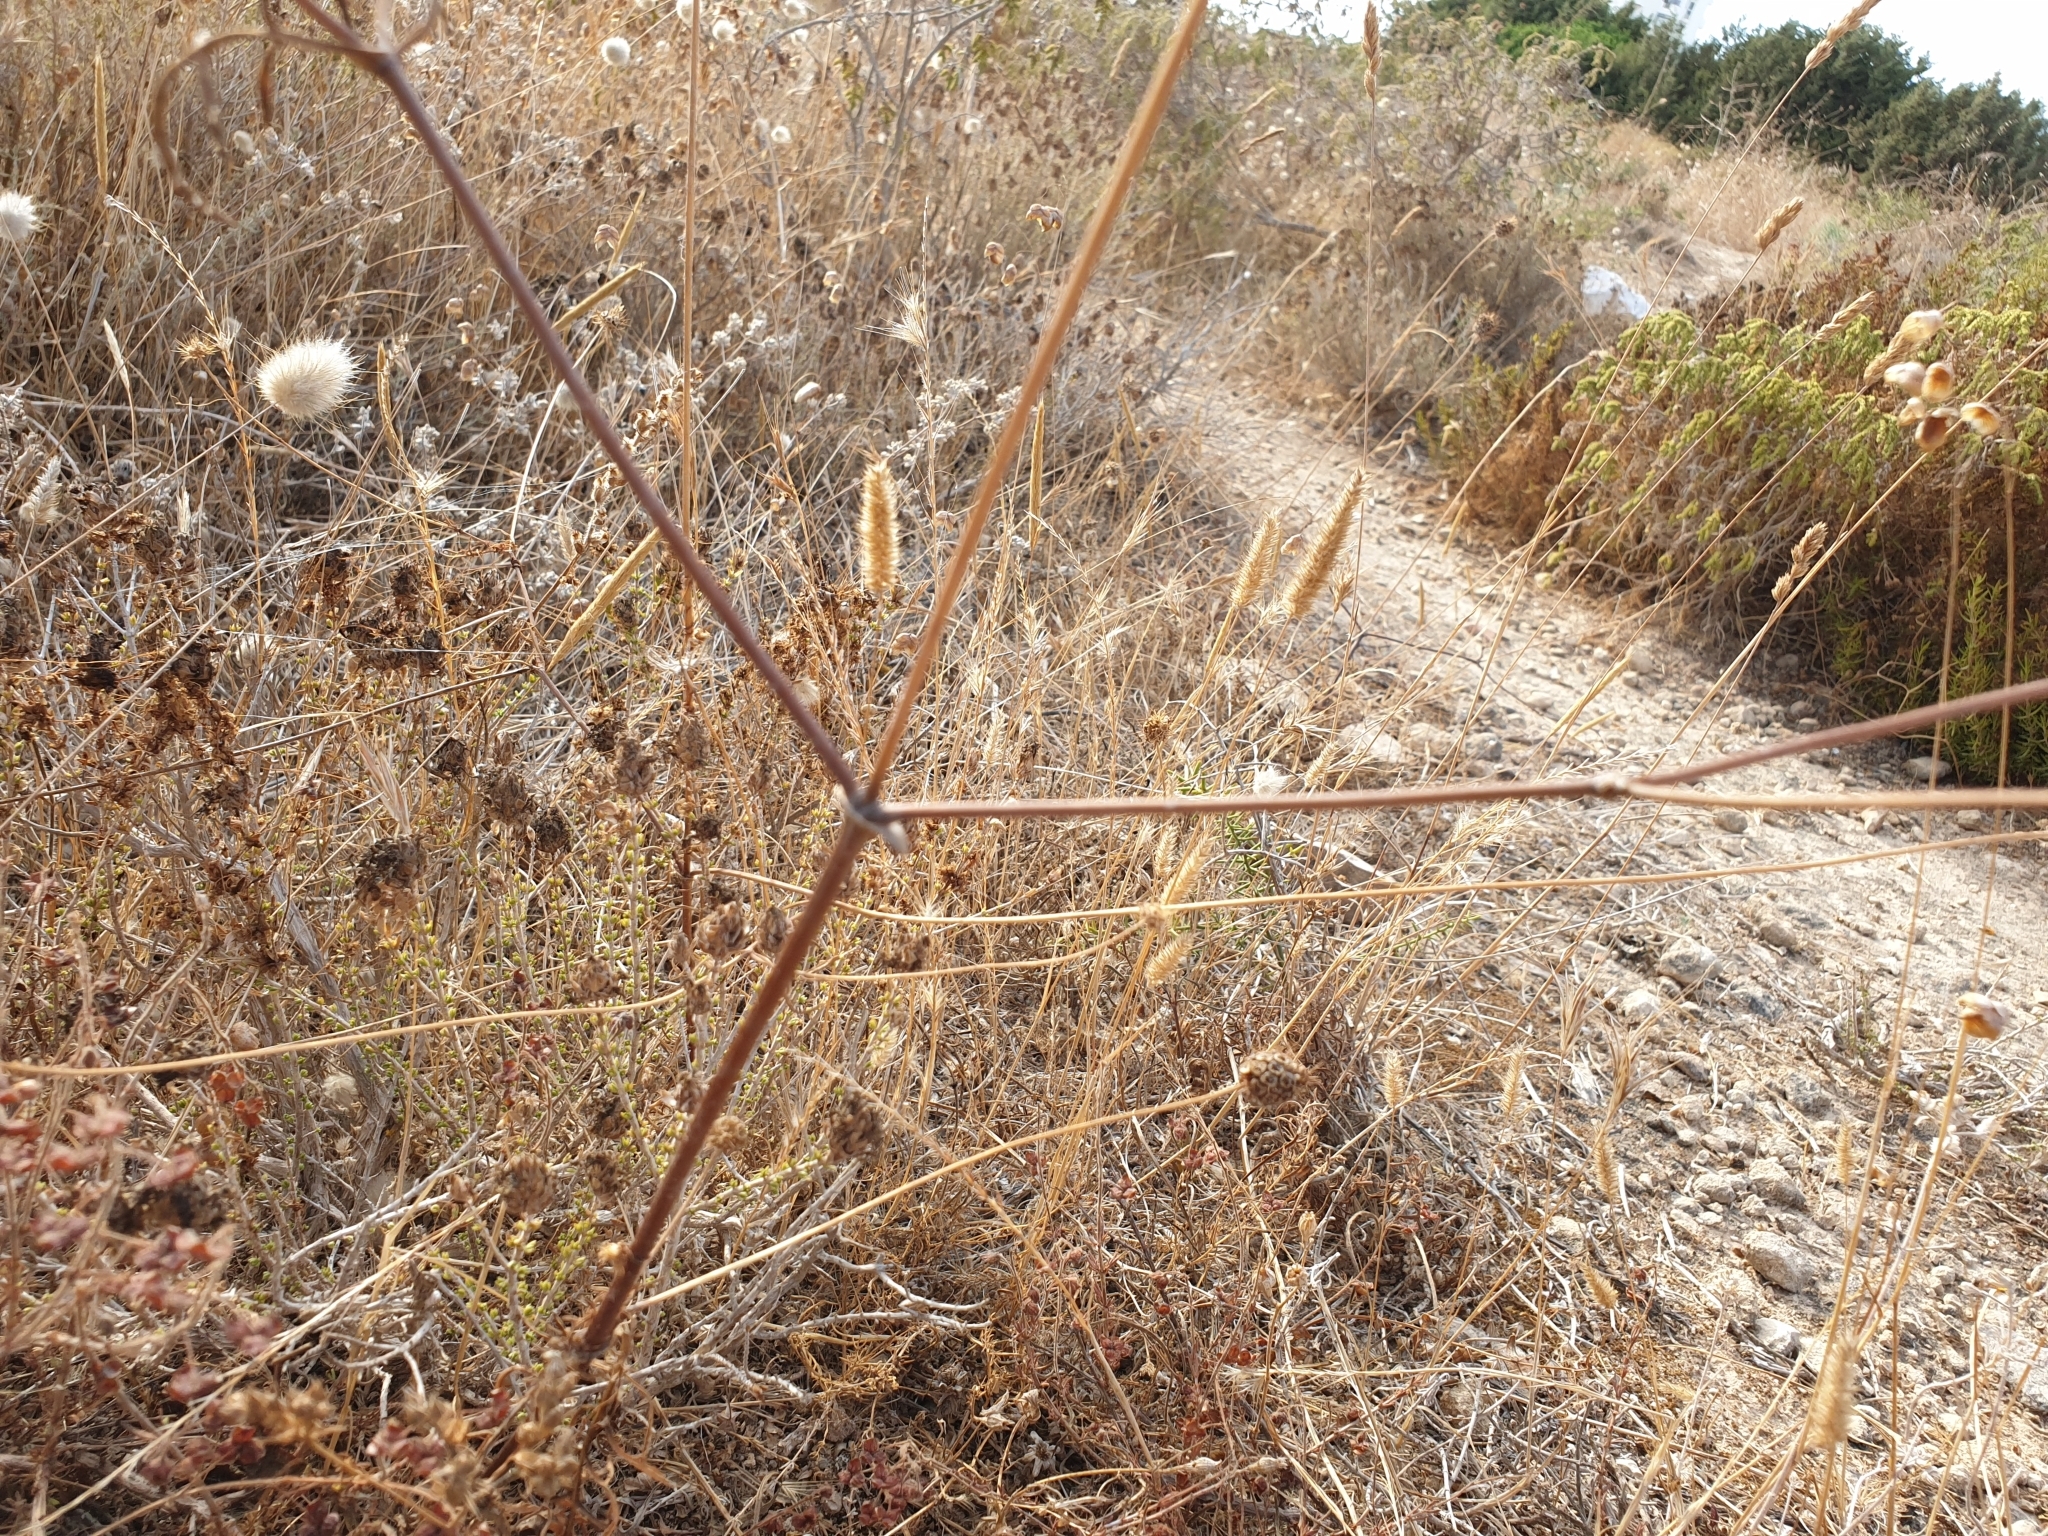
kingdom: Plantae
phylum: Tracheophyta
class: Magnoliopsida
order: Dipsacales
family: Caprifoliaceae
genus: Sixalix
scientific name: Sixalix atropurpurea
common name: Sweet scabious
